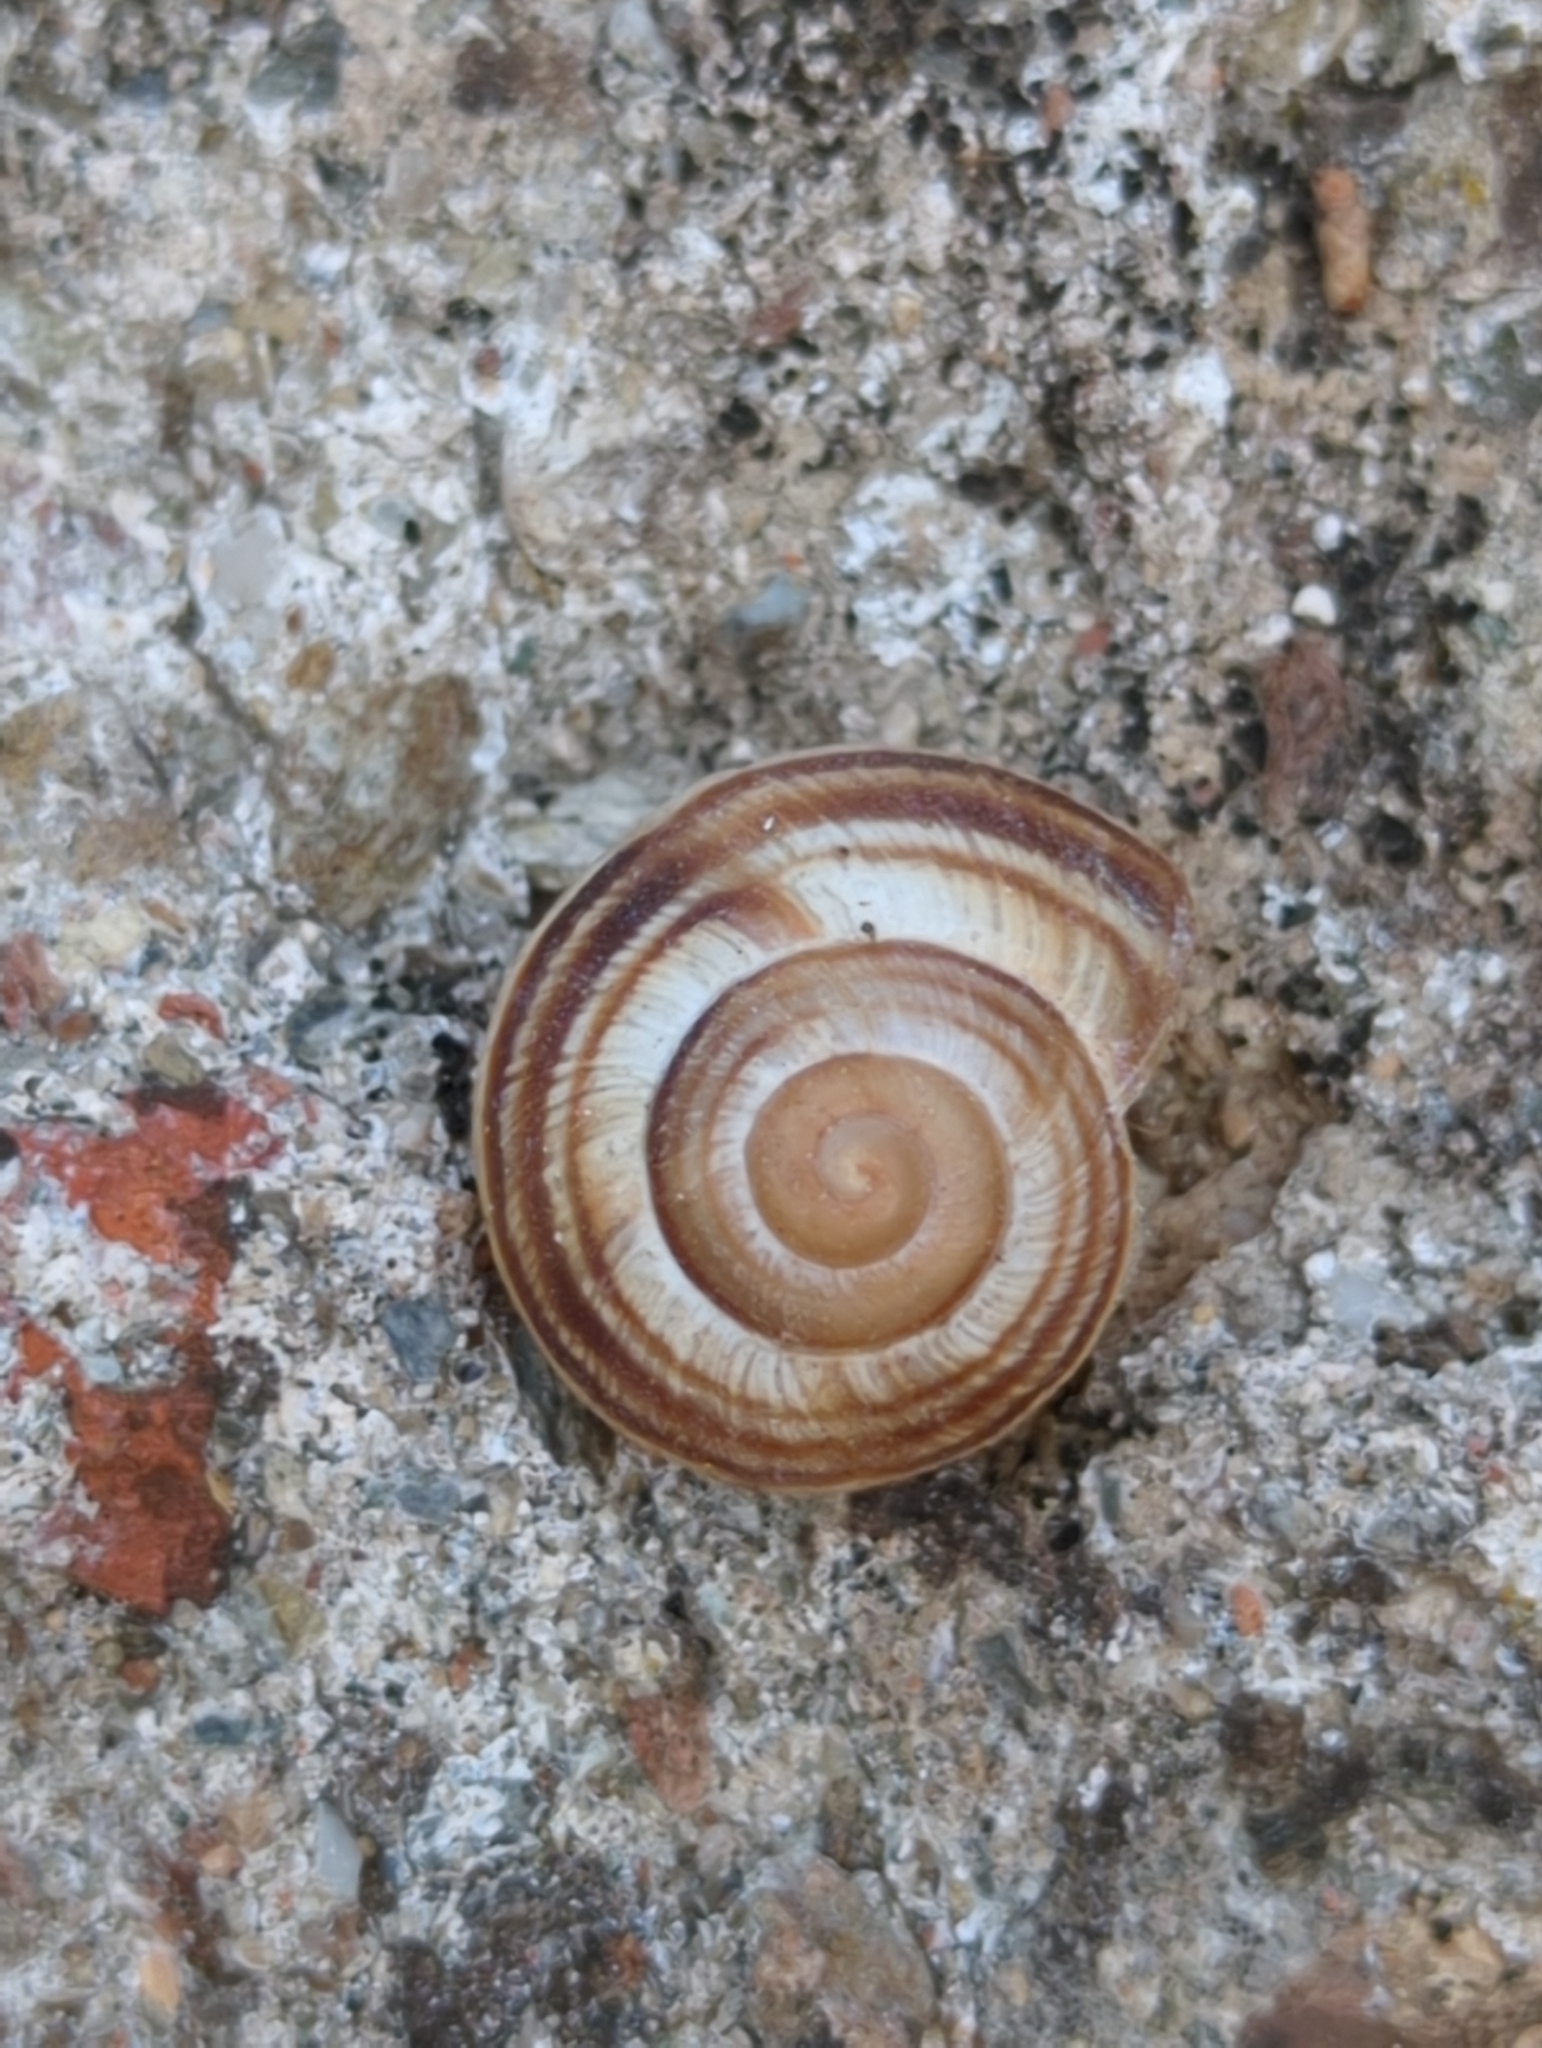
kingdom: Animalia
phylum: Mollusca
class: Gastropoda
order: Stylommatophora
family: Helicidae
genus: Caucasotachea
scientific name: Caucasotachea vindobonensis
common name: European helicid land snail
